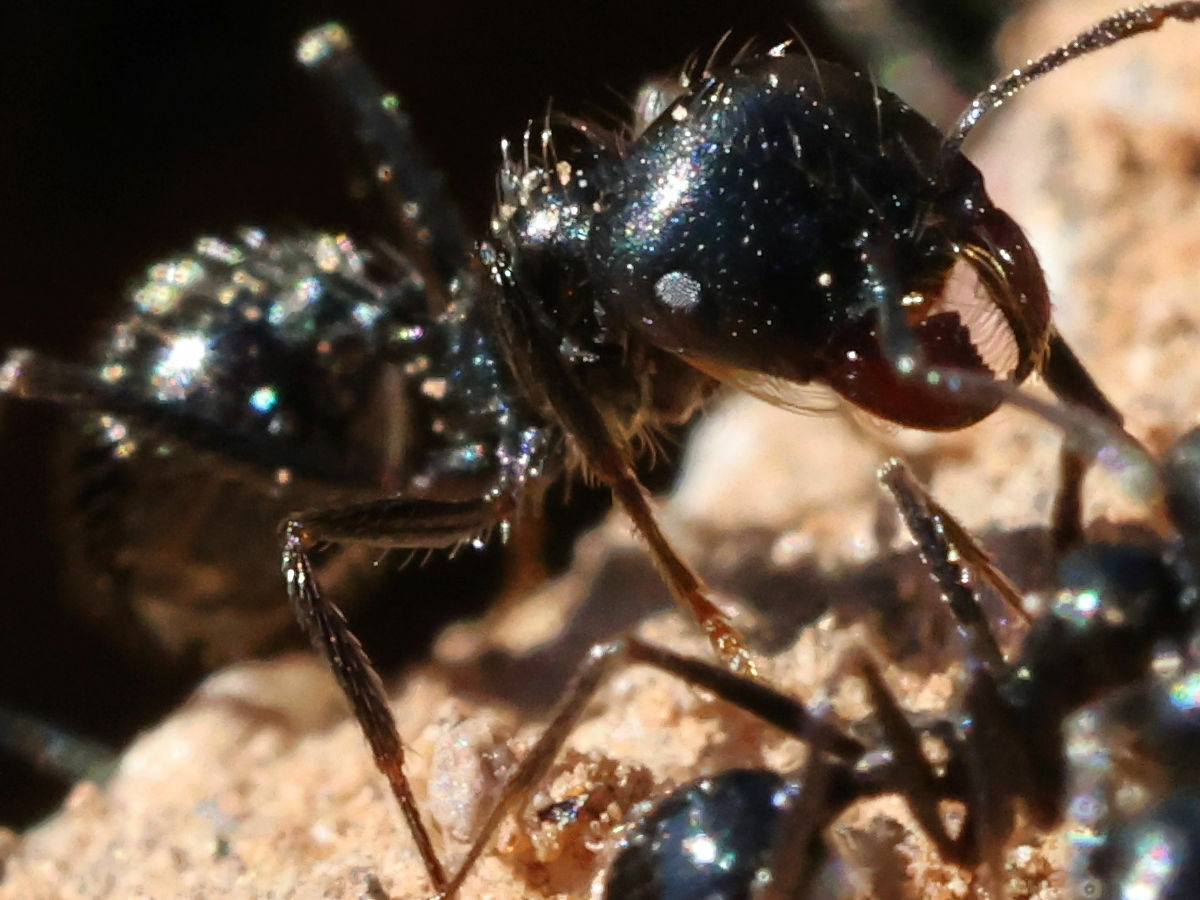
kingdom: Animalia
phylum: Arthropoda
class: Insecta
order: Hymenoptera
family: Formicidae
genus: Messor
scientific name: Messor pergandei
